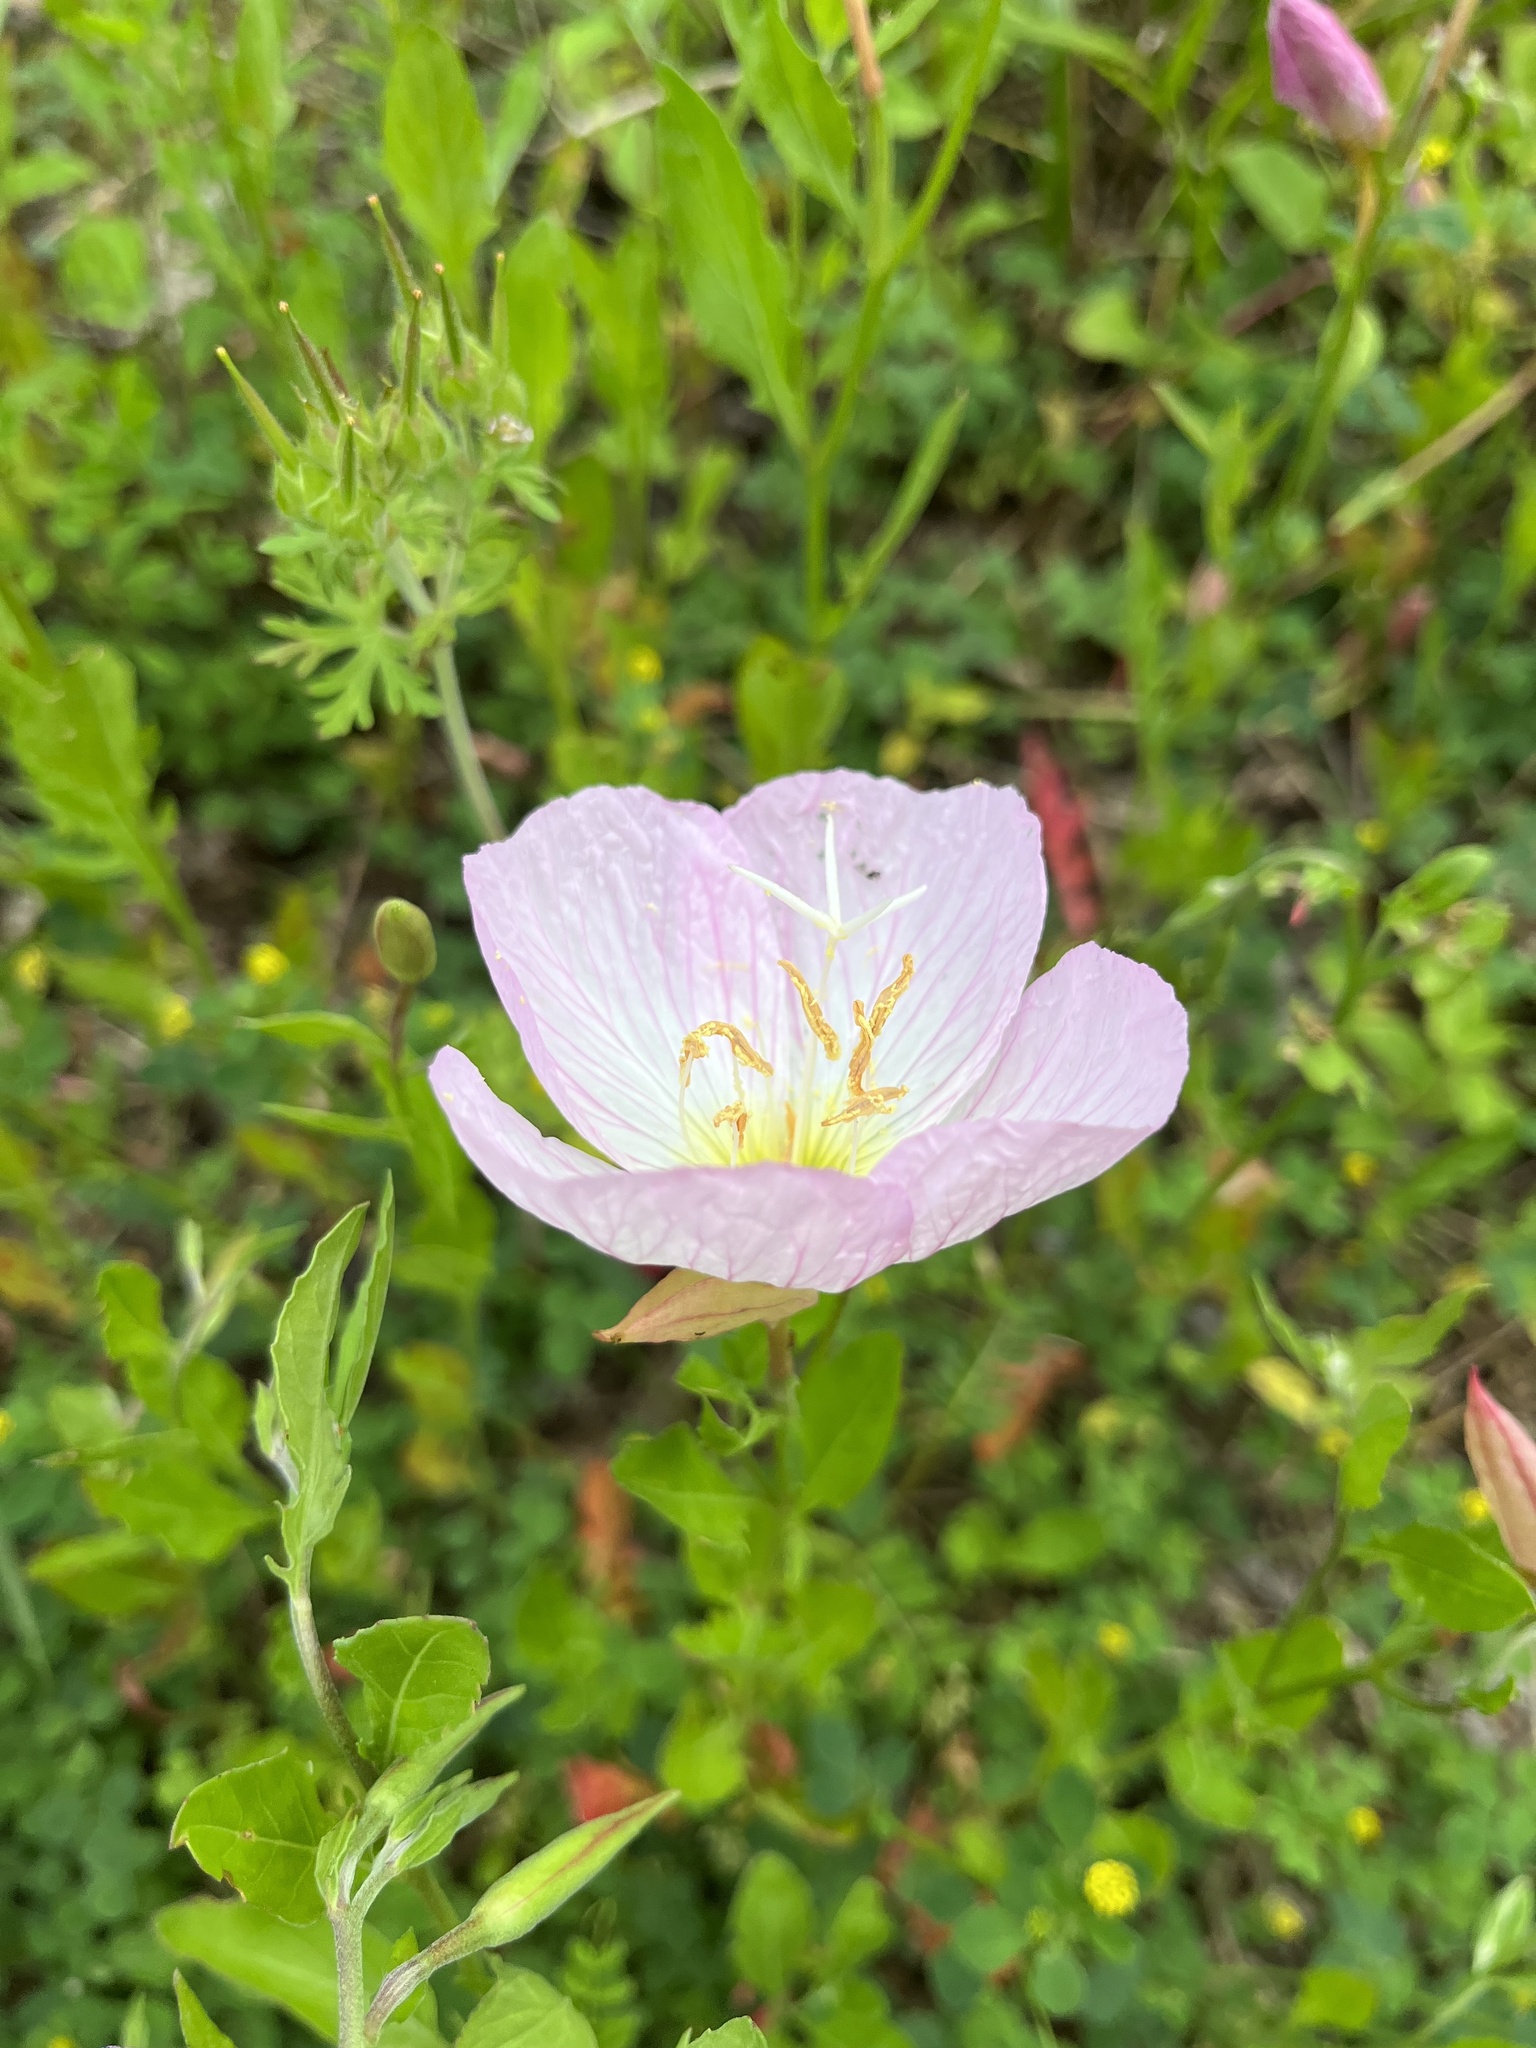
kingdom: Plantae
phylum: Tracheophyta
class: Magnoliopsida
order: Myrtales
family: Onagraceae
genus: Oenothera
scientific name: Oenothera speciosa
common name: White evening-primrose
